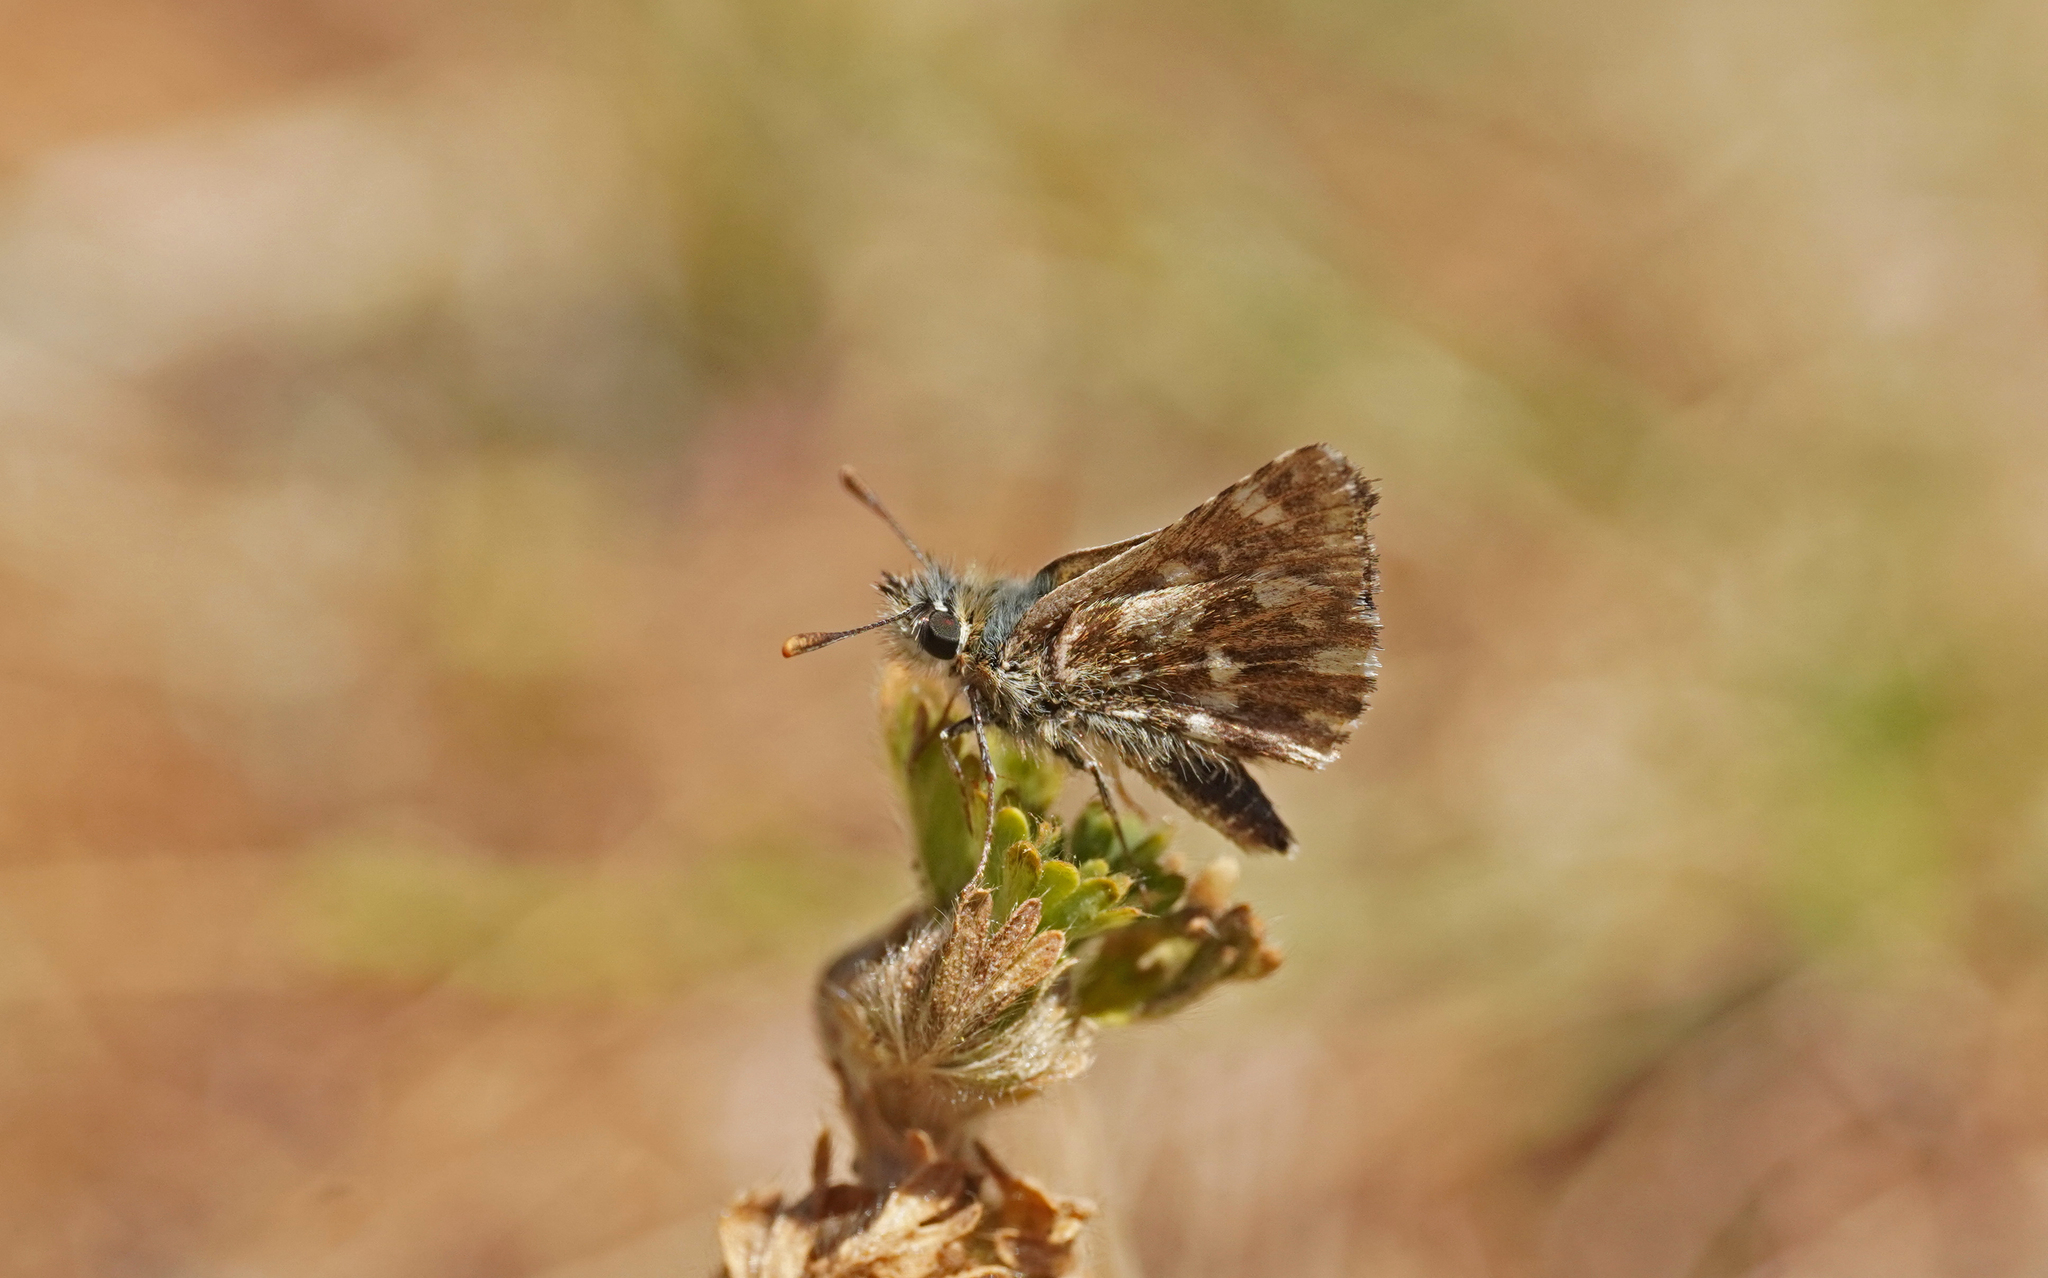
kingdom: Animalia
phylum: Arthropoda
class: Insecta
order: Lepidoptera
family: Hesperiidae
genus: Spialia
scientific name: Spialia sertorius
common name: Red underwing skipper
